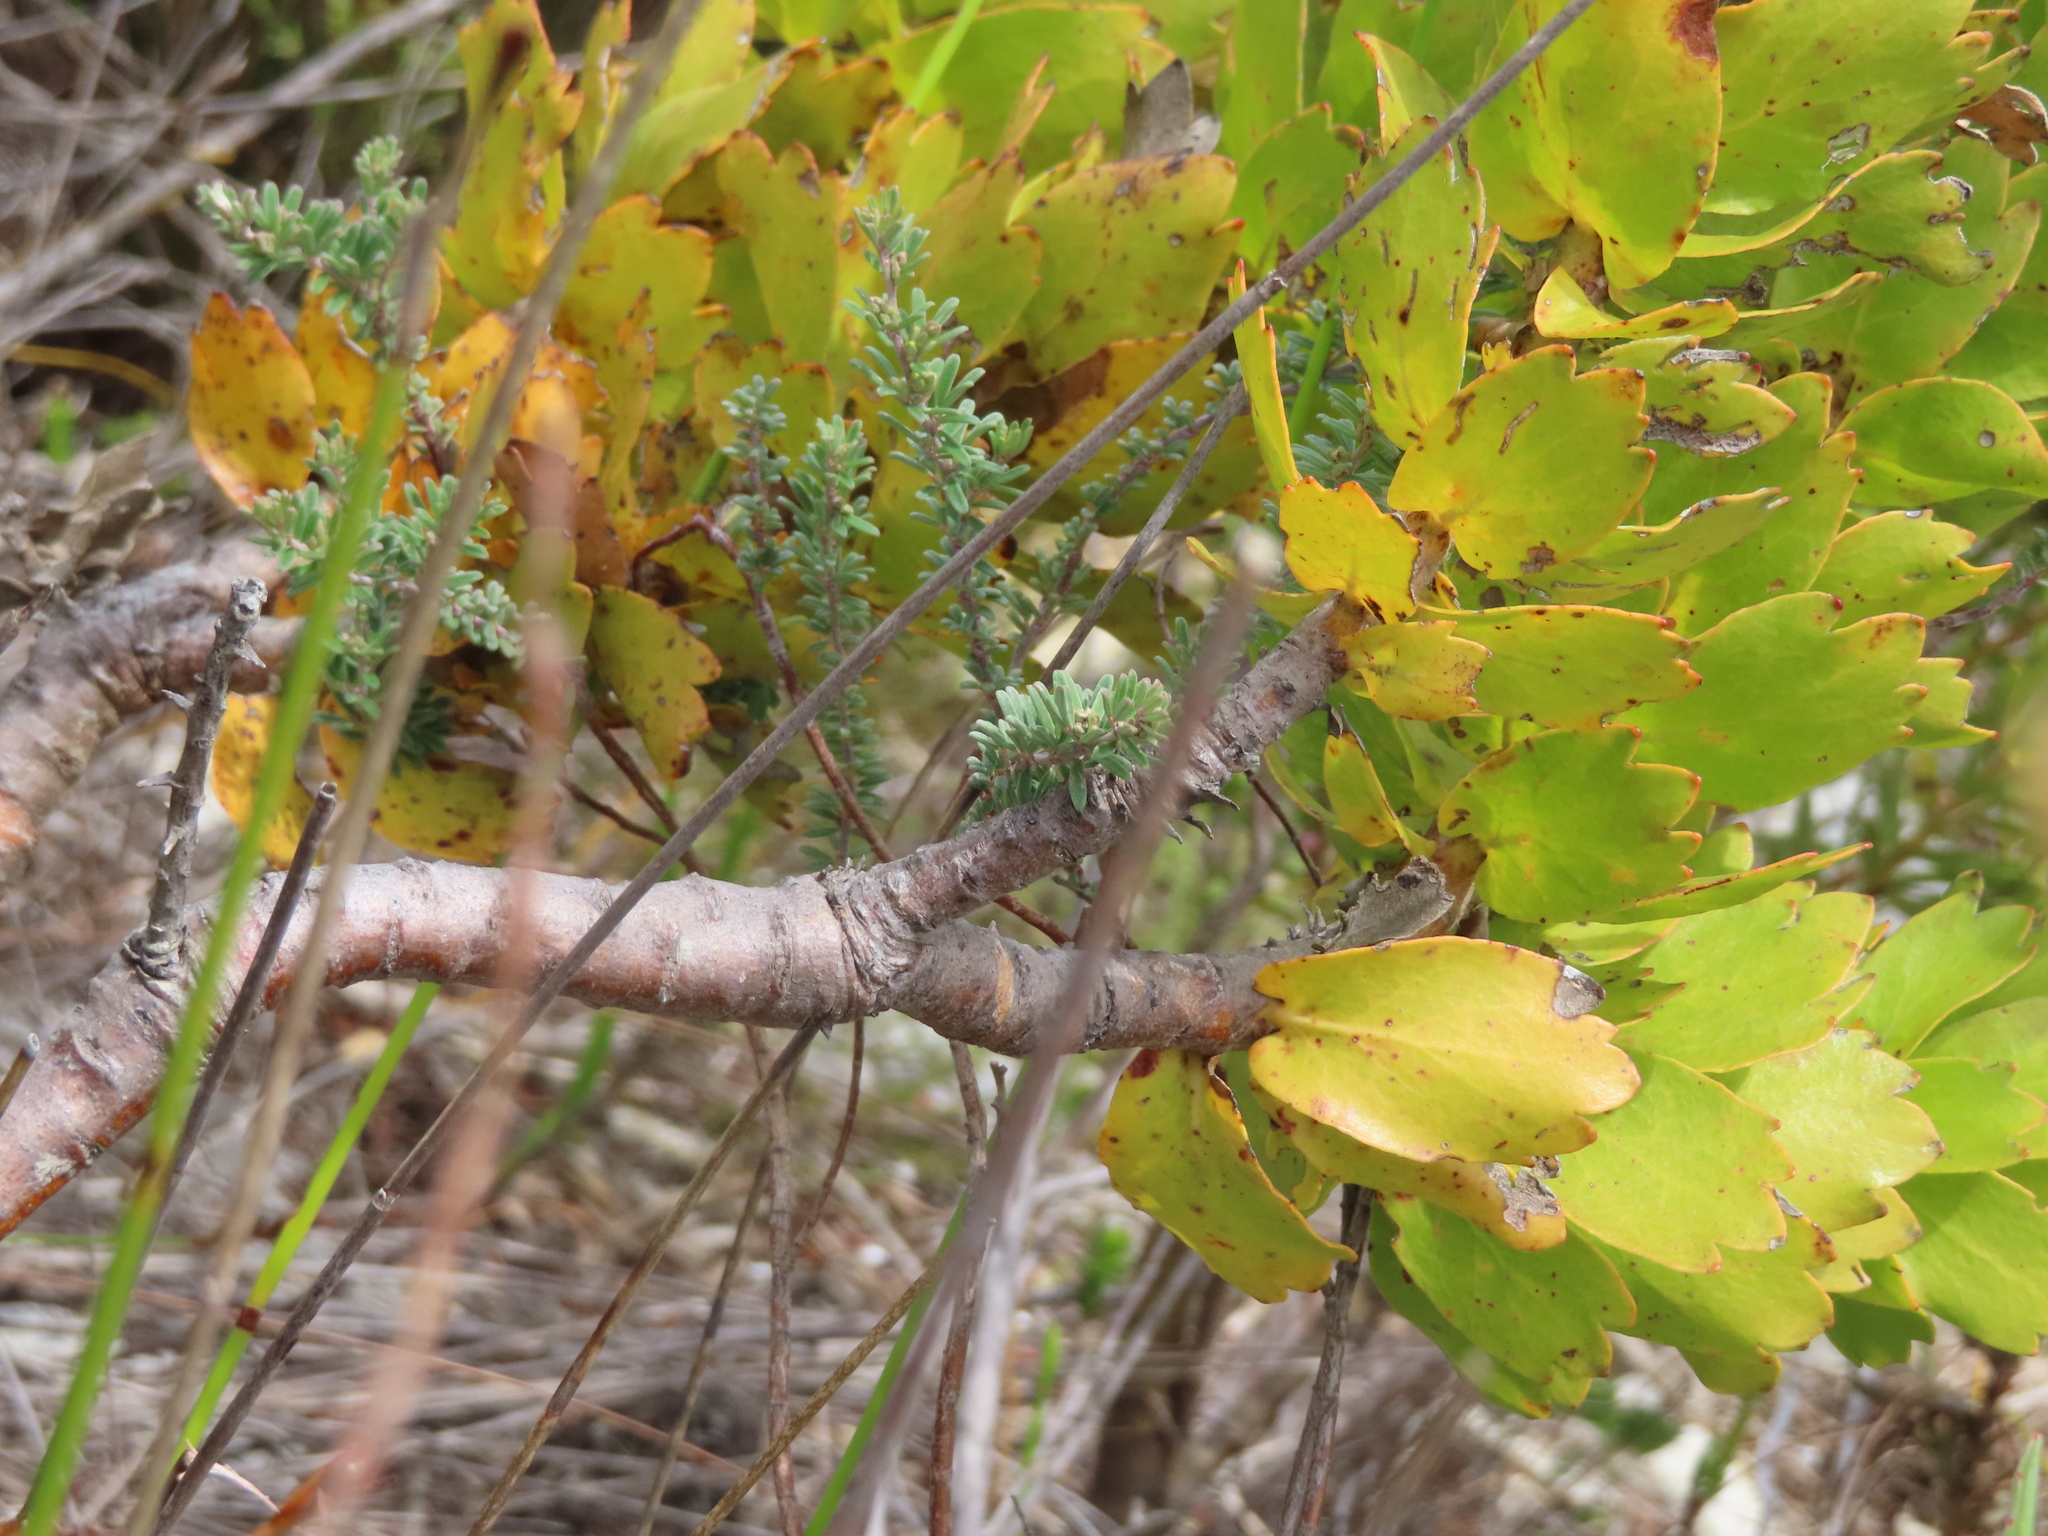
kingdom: Plantae
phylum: Tracheophyta
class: Magnoliopsida
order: Proteales
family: Proteaceae
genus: Leucospermum
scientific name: Leucospermum patersonii
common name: False tree pincushion
